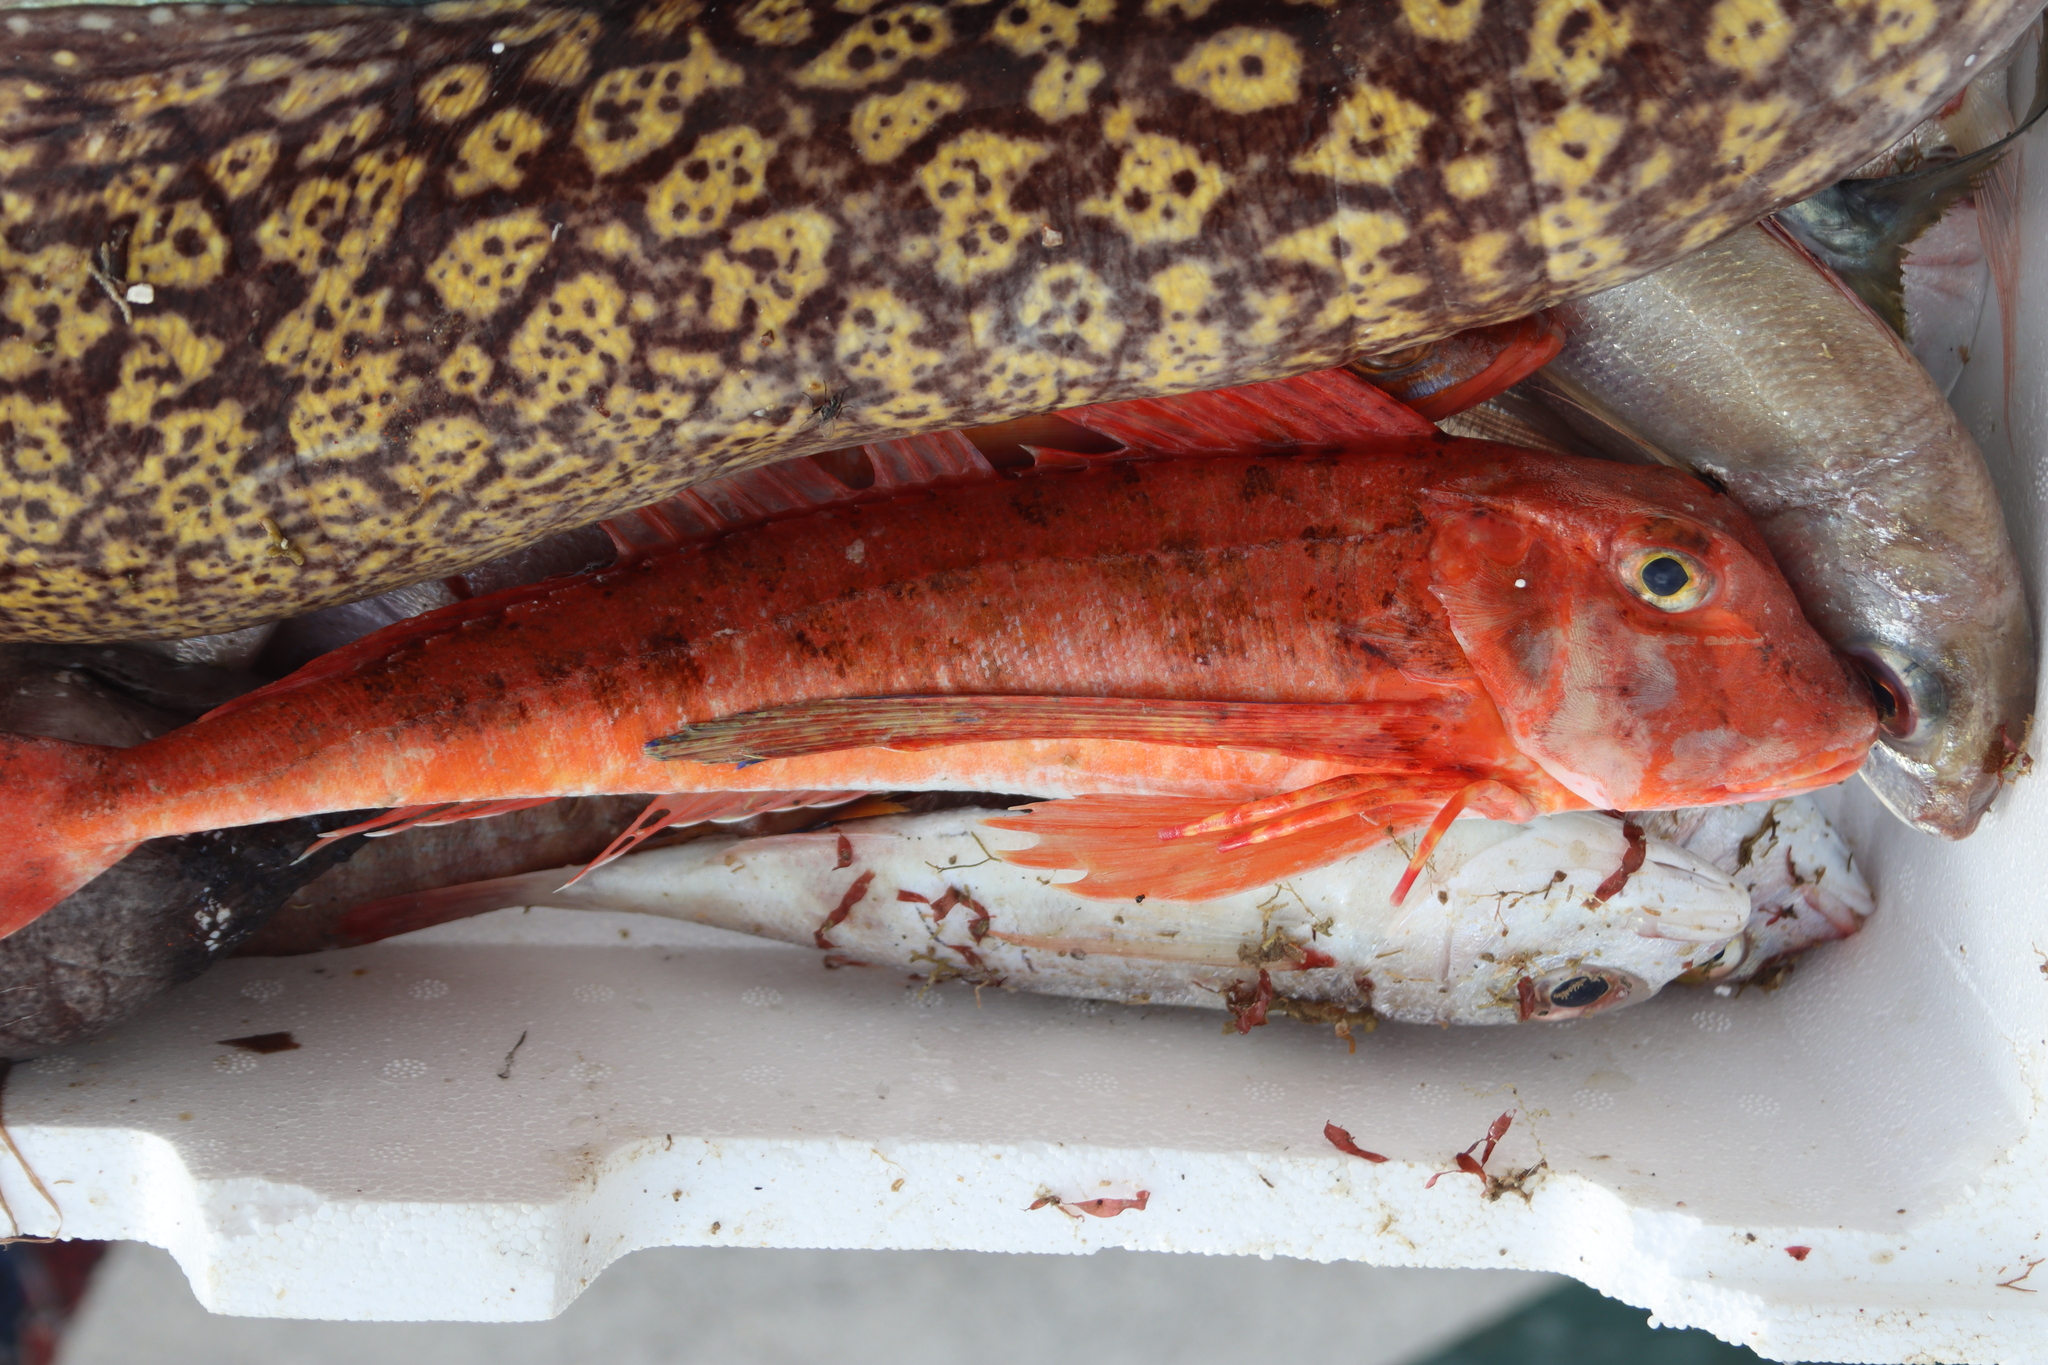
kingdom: Animalia
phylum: Chordata
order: Scorpaeniformes
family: Triglidae
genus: Chelidonichthys
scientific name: Chelidonichthys lastoviza
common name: Streaked gurnard
